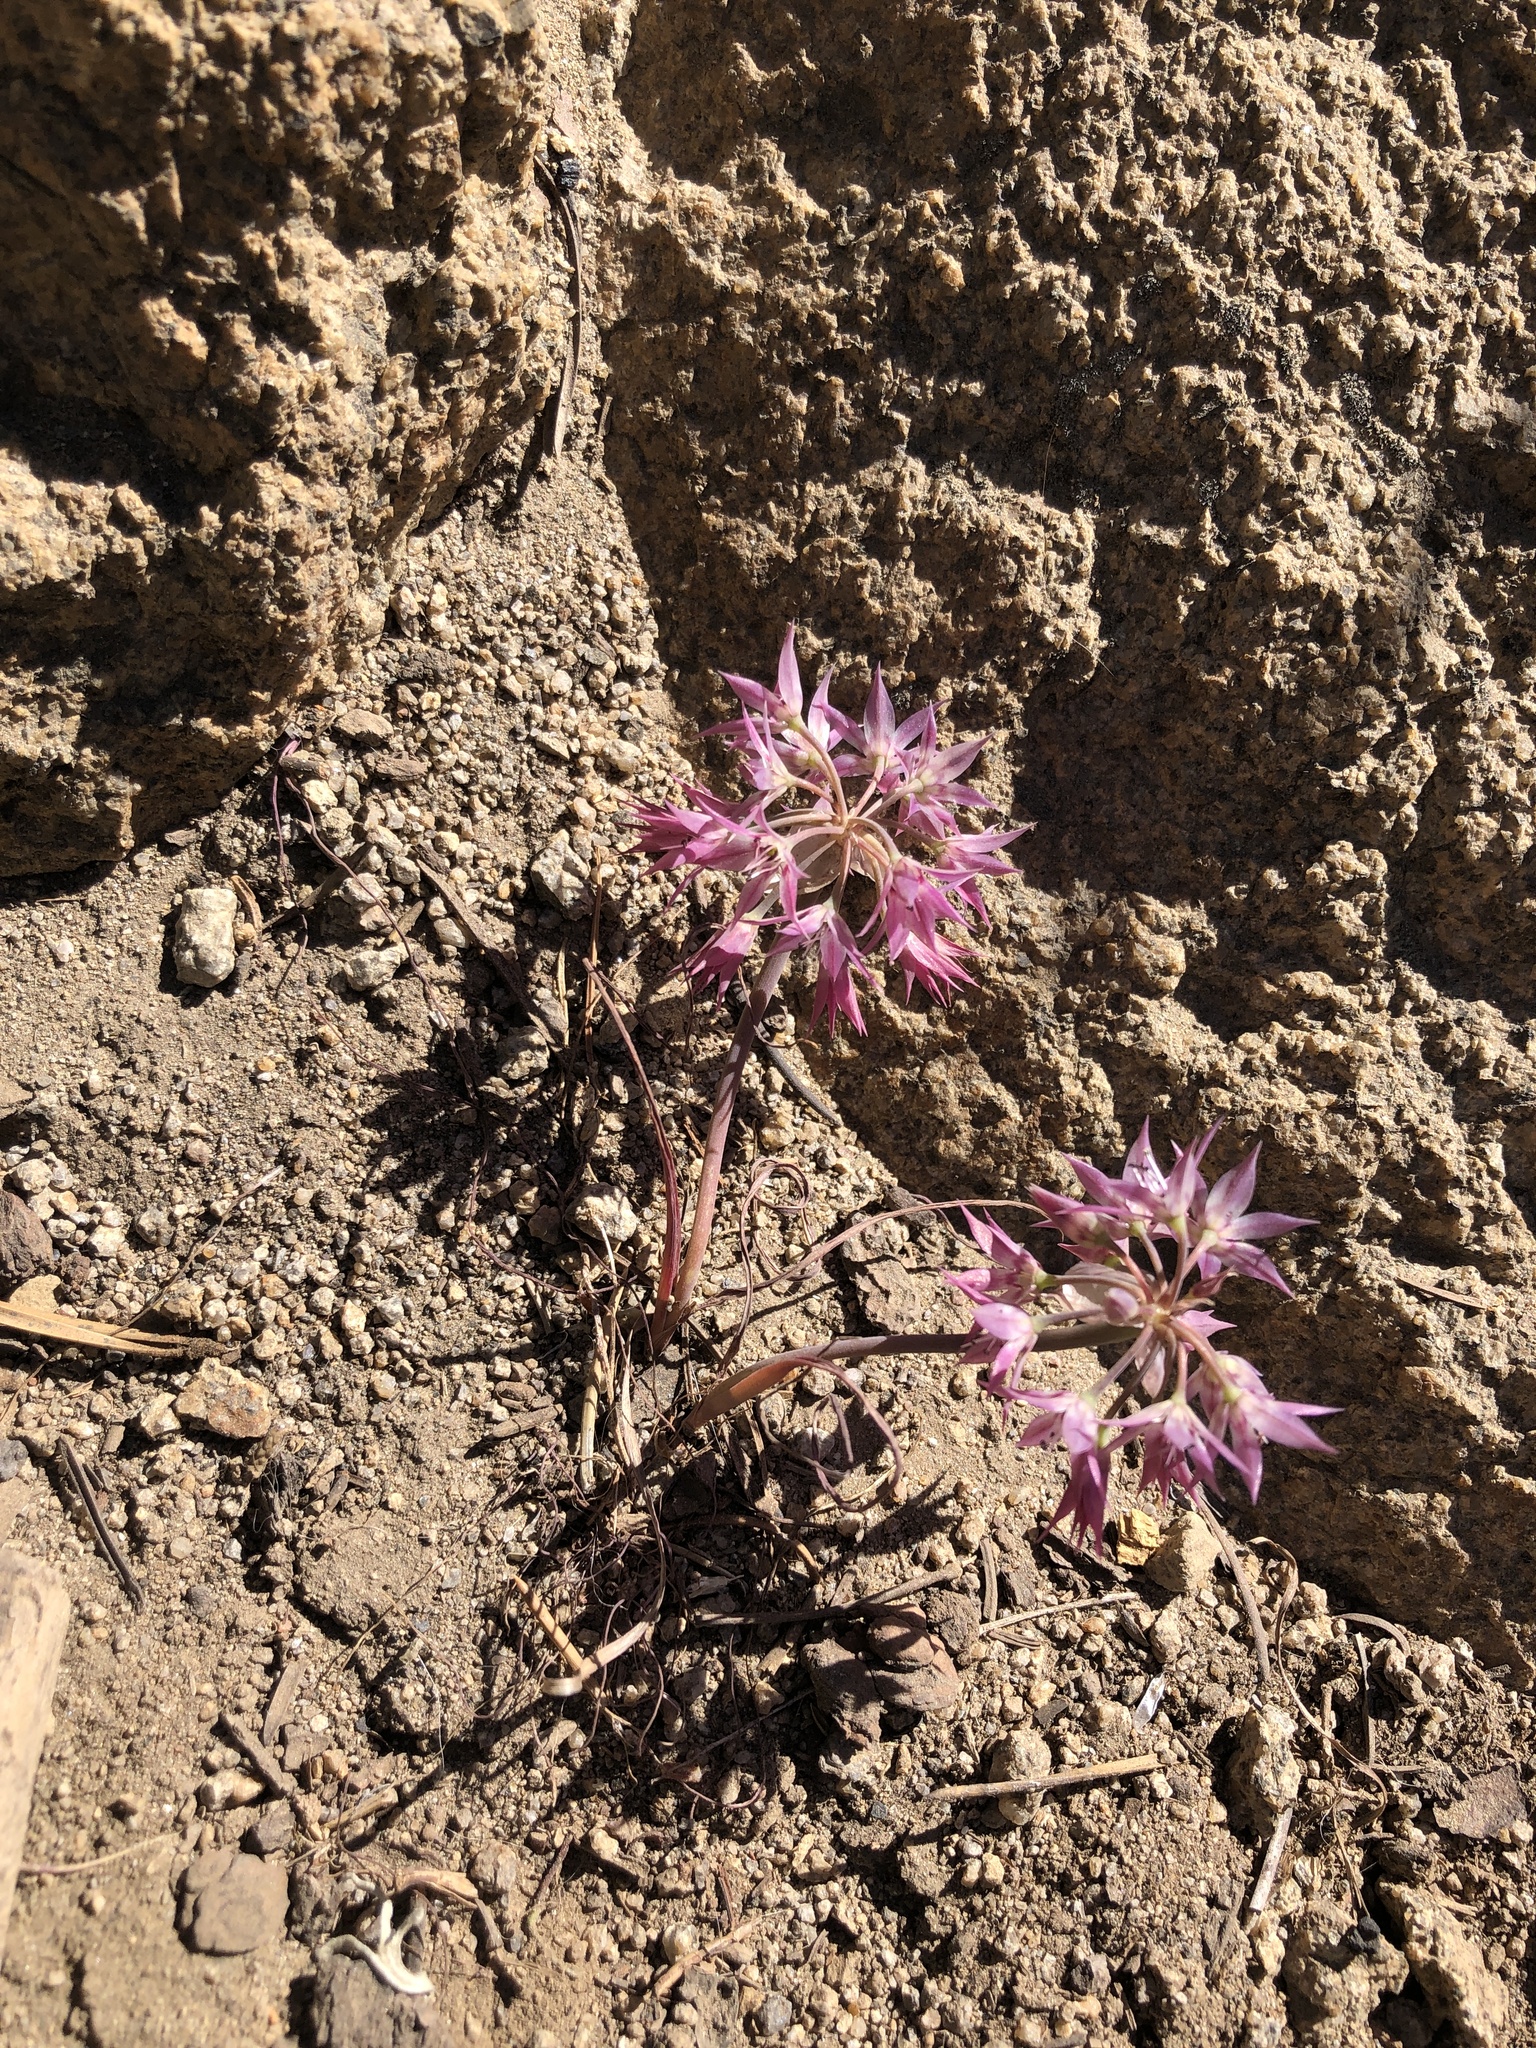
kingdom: Plantae
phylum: Tracheophyta
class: Liliopsida
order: Asparagales
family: Amaryllidaceae
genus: Allium
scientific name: Allium campanulatum
